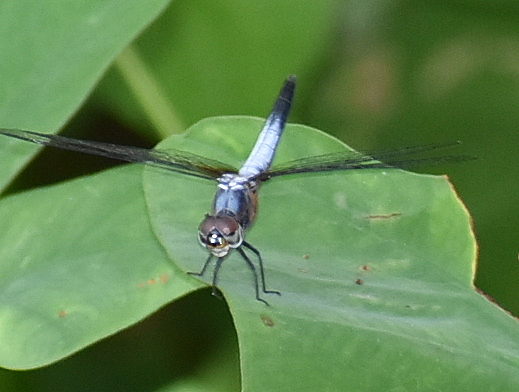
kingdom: Animalia
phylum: Arthropoda
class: Insecta
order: Odonata
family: Libellulidae
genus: Brachydiplax
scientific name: Brachydiplax chalybea
